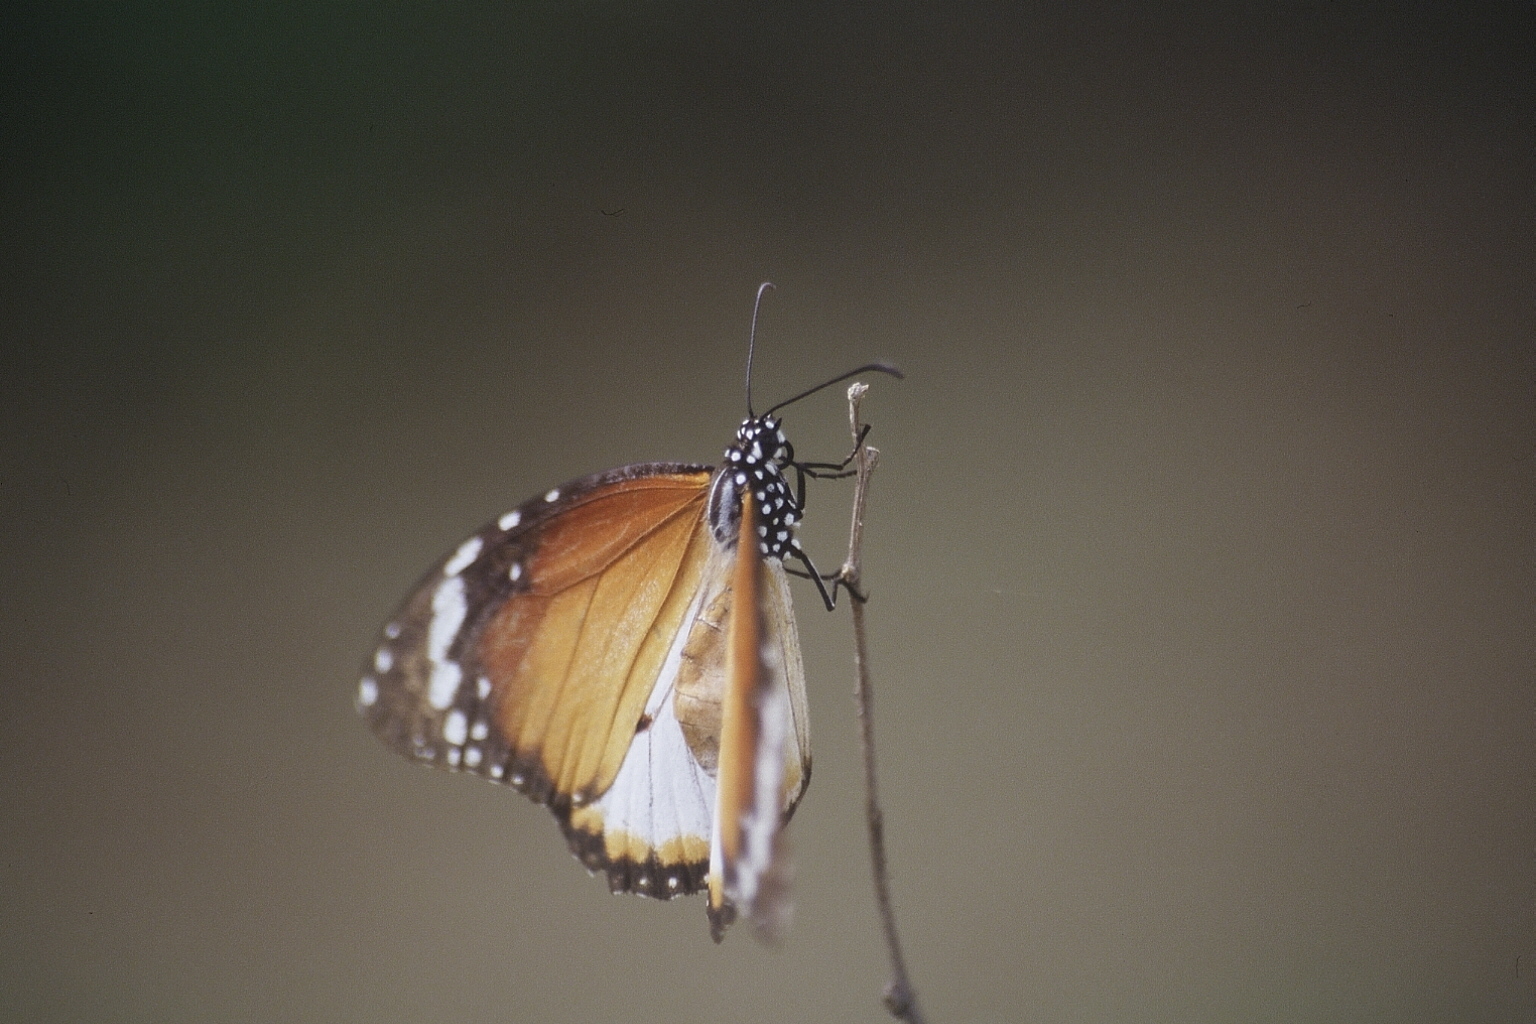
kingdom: Animalia
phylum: Arthropoda
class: Insecta
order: Lepidoptera
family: Nymphalidae
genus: Danaus
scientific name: Danaus chrysippus
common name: Plain tiger
